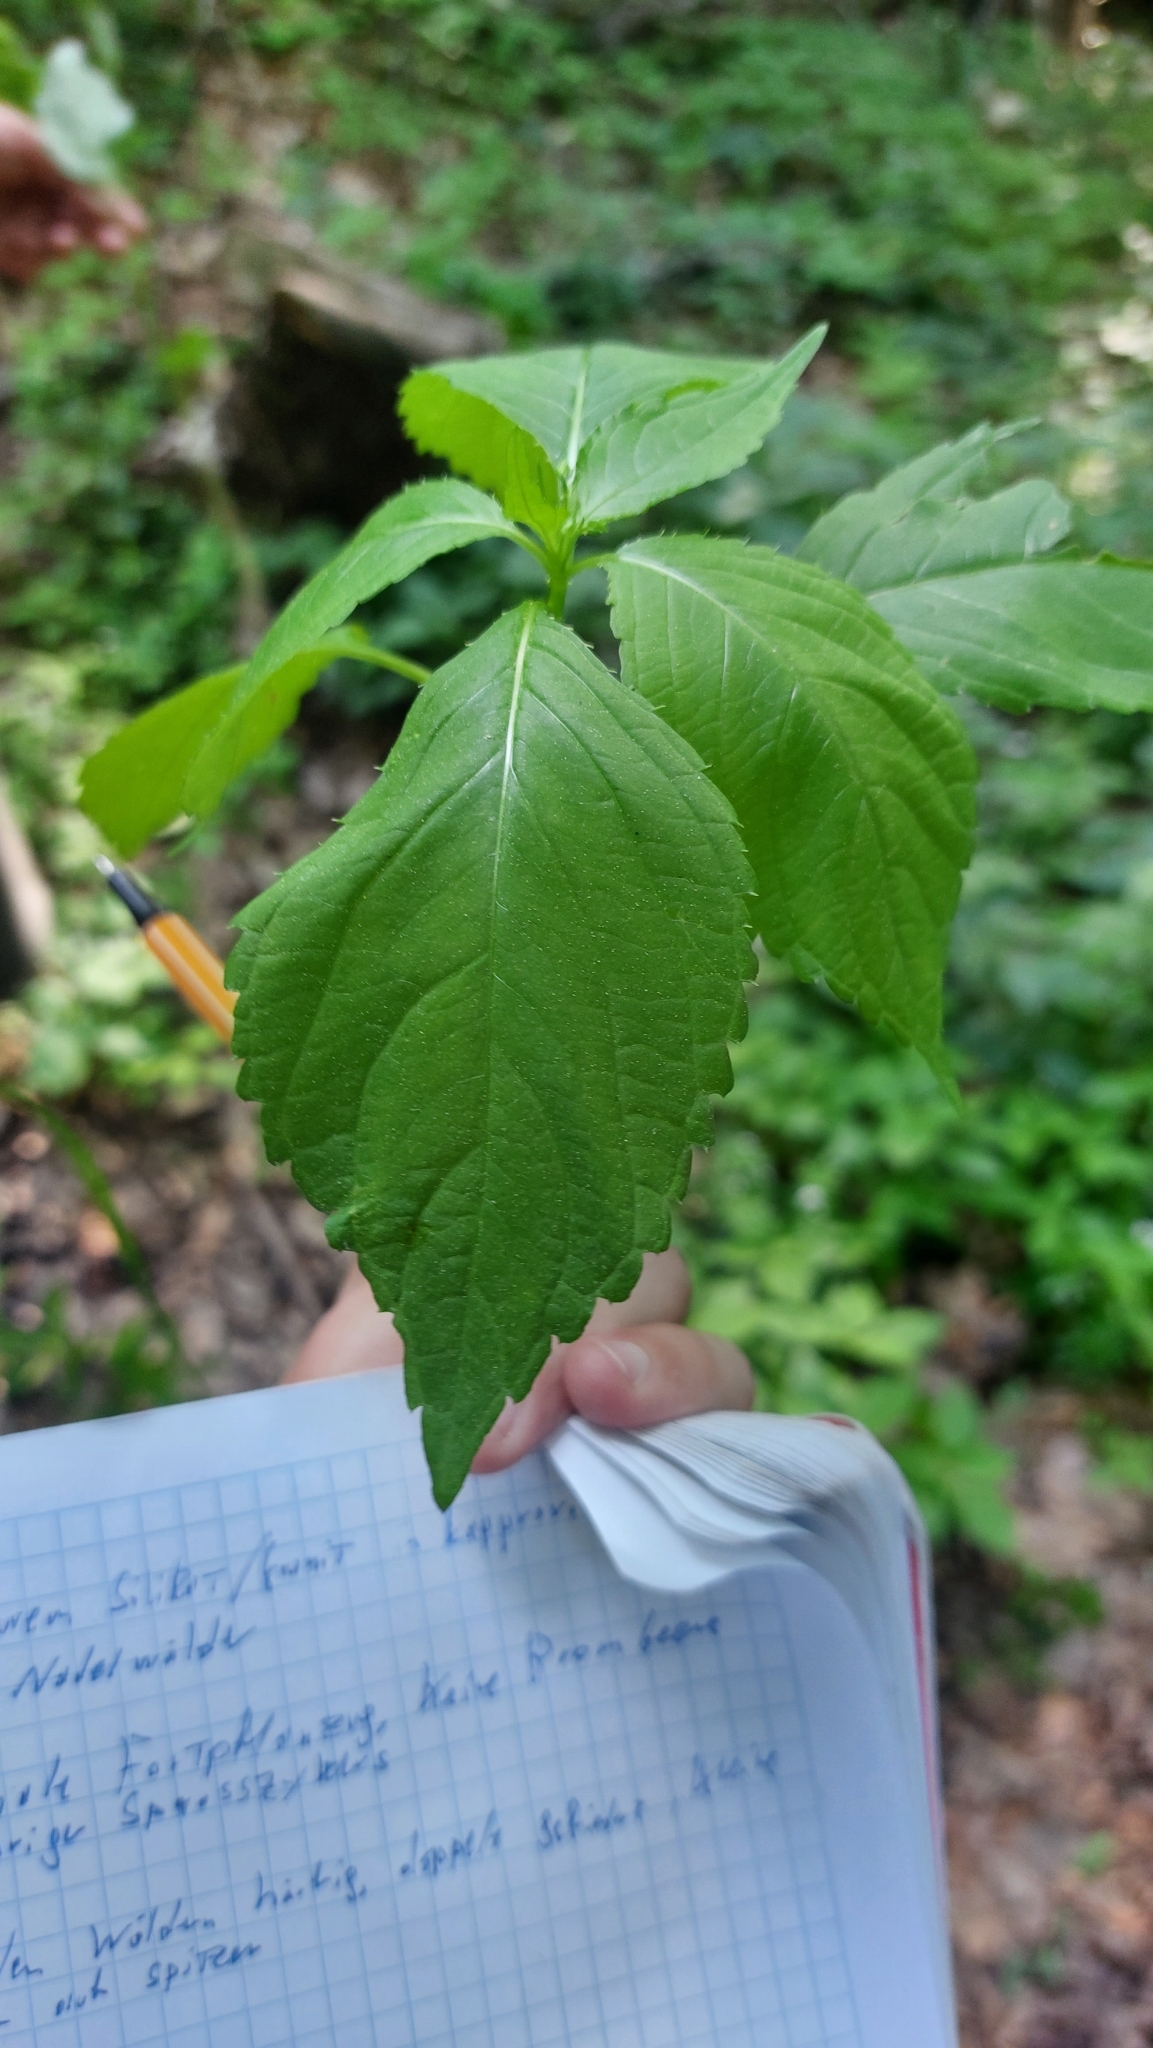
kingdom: Plantae
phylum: Tracheophyta
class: Magnoliopsida
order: Ericales
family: Balsaminaceae
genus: Impatiens
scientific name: Impatiens parviflora
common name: Small balsam
